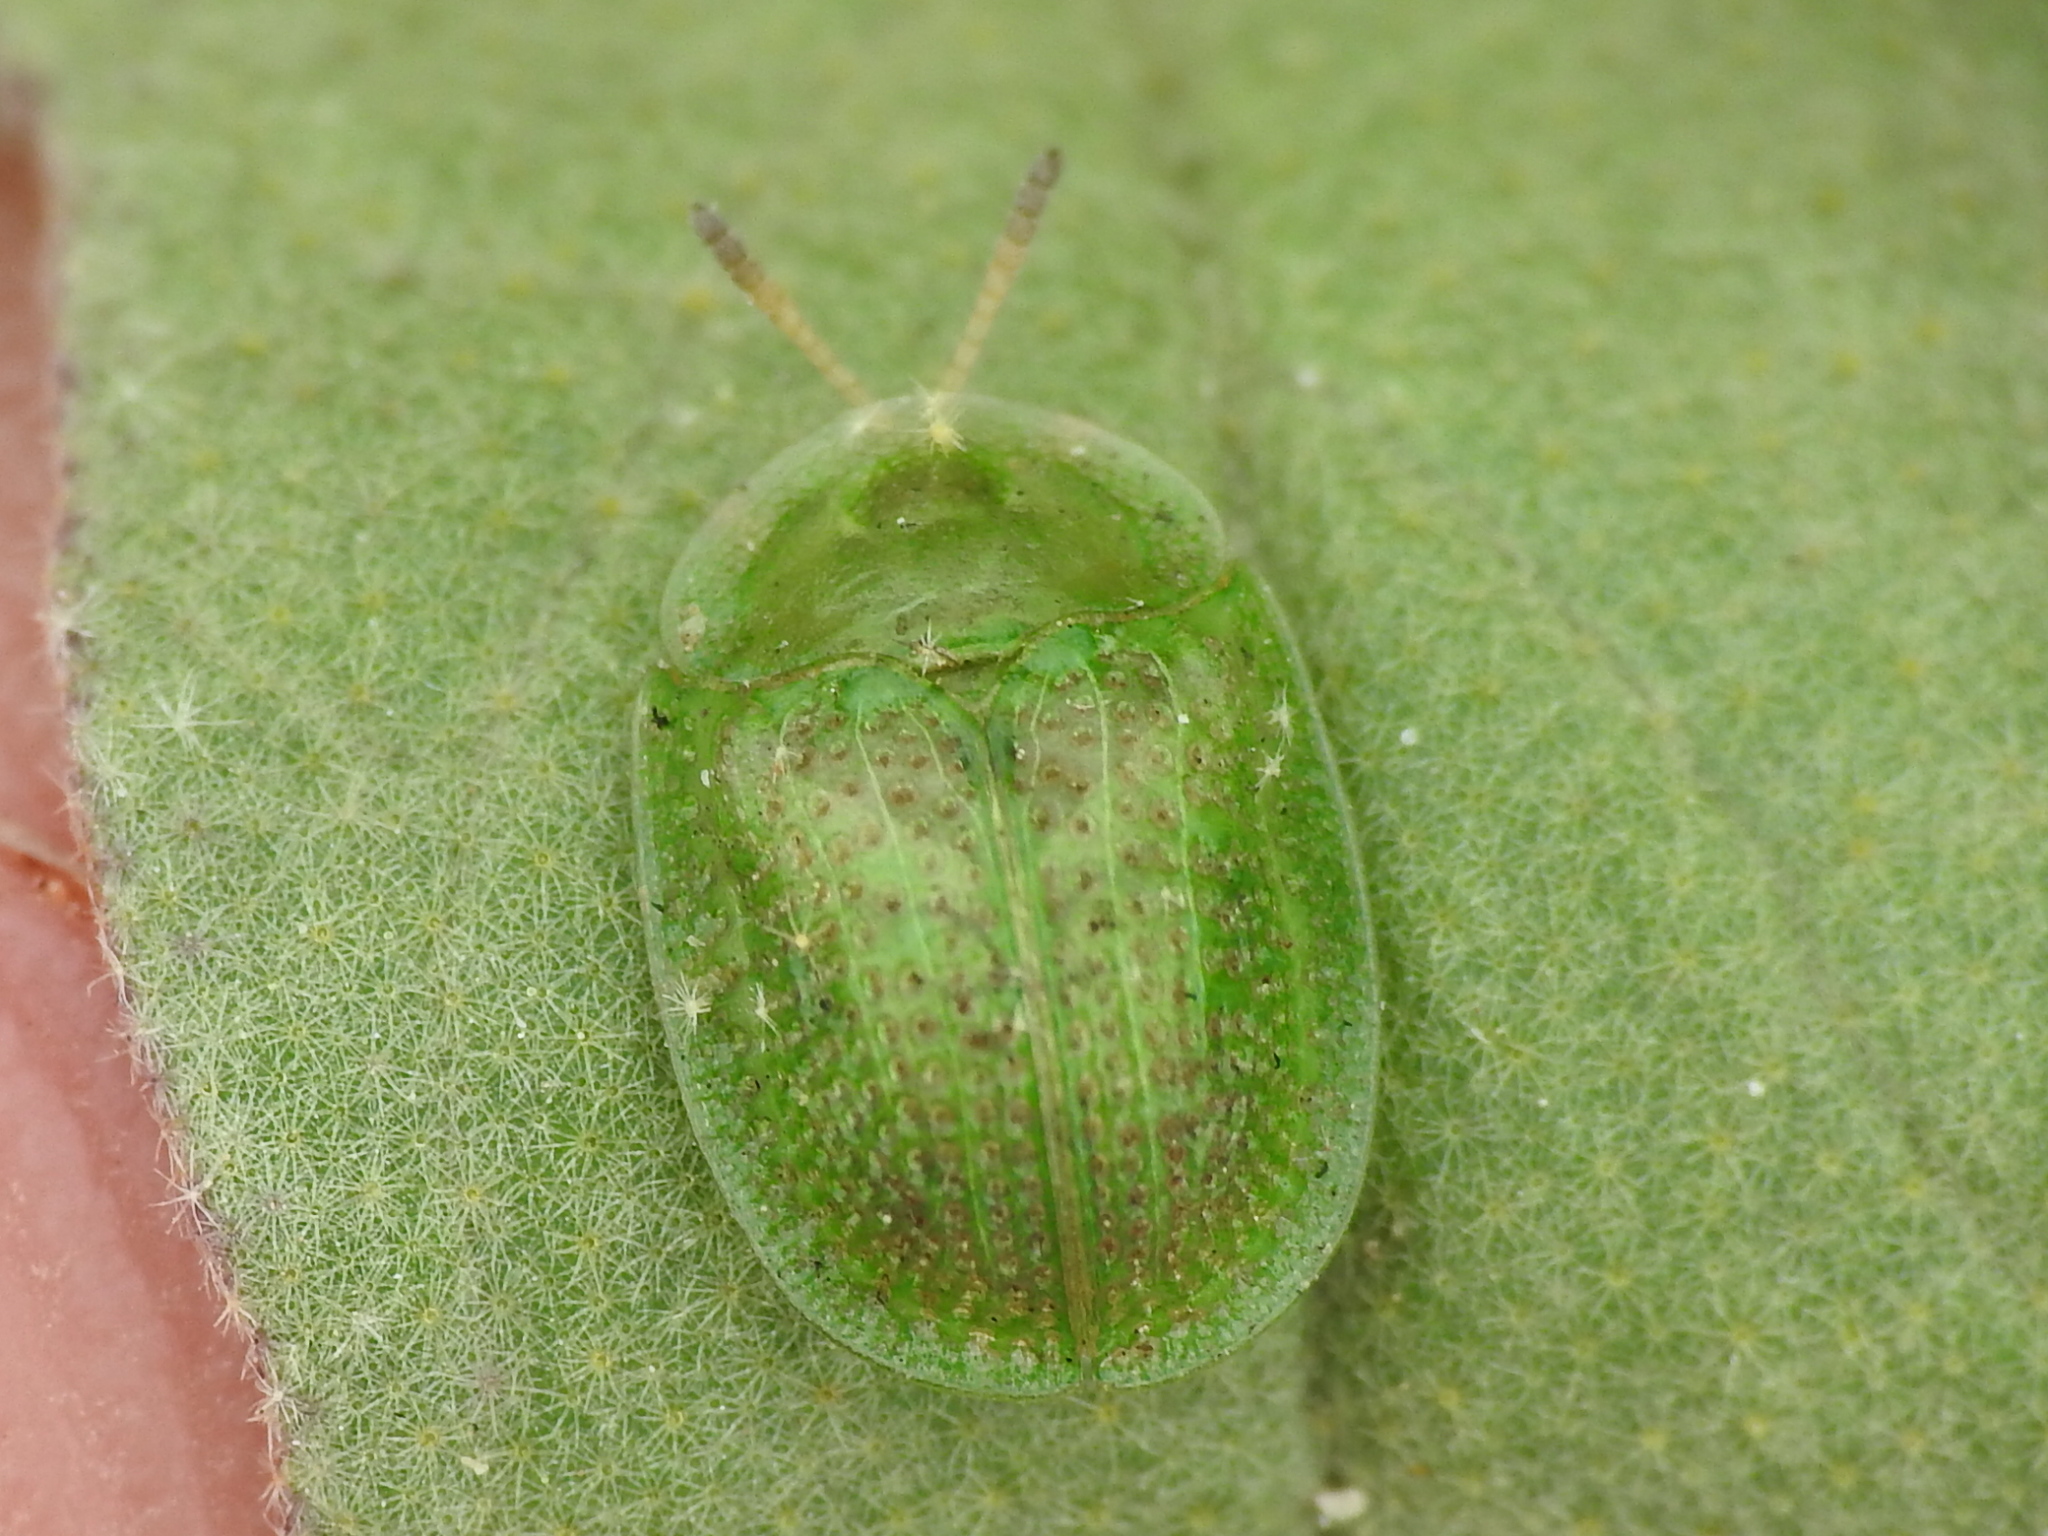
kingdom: Animalia
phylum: Arthropoda
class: Insecta
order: Coleoptera
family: Chrysomelidae
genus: Gratiana
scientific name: Gratiana pallidula
